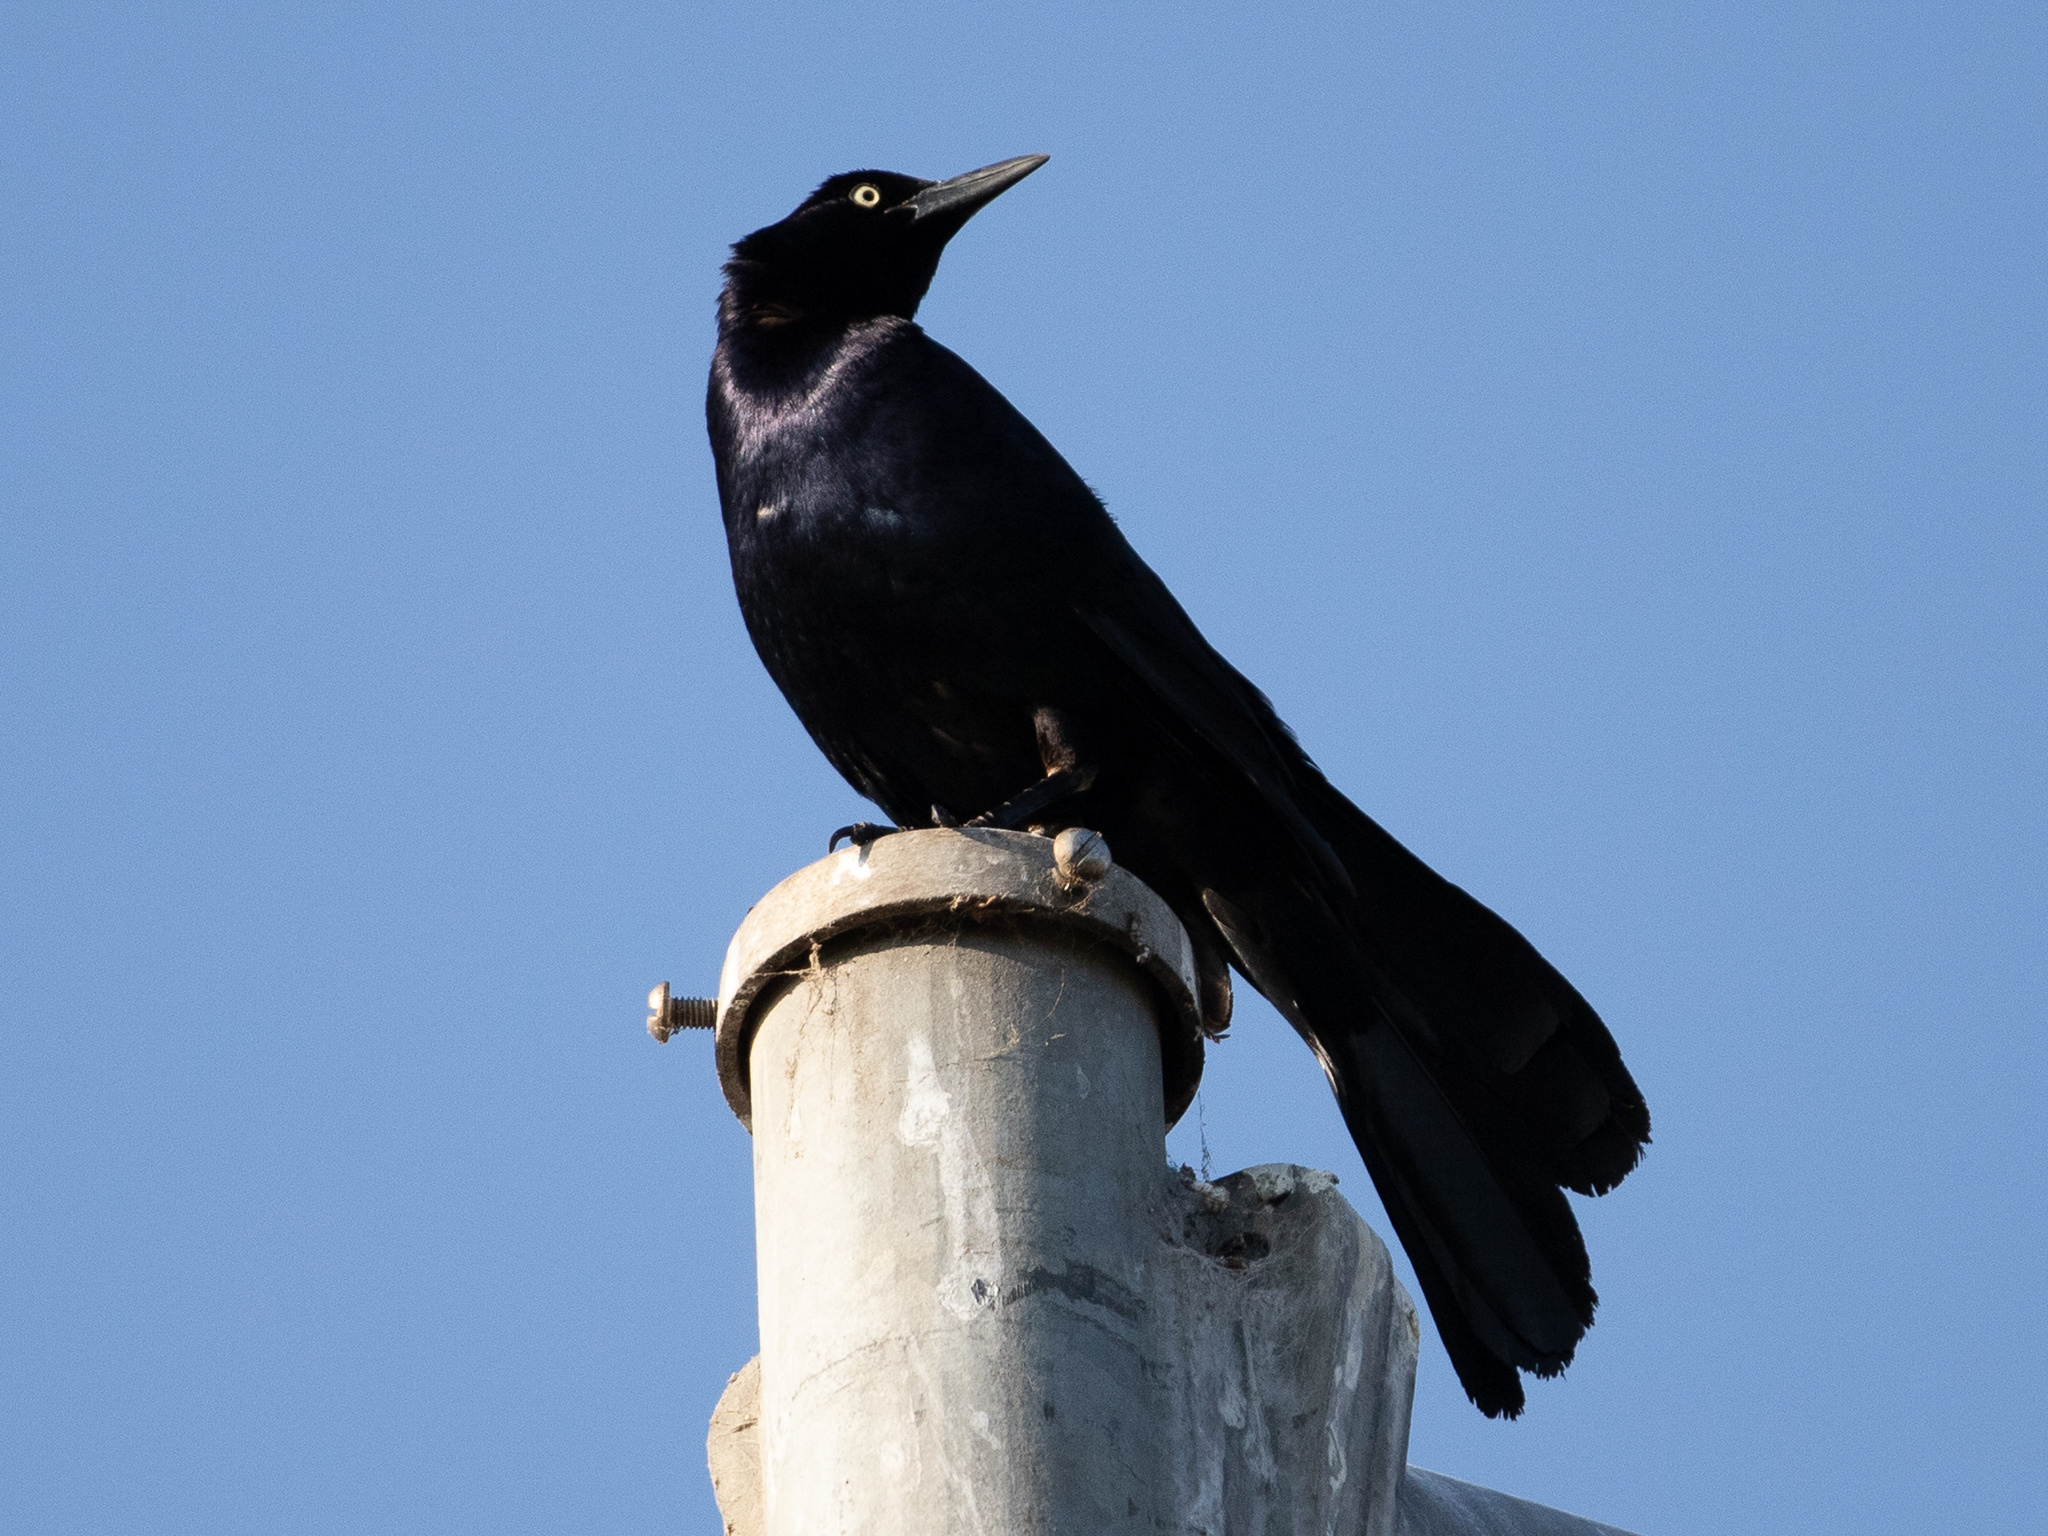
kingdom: Animalia
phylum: Chordata
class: Aves
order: Passeriformes
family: Icteridae
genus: Quiscalus
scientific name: Quiscalus mexicanus
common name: Great-tailed grackle
